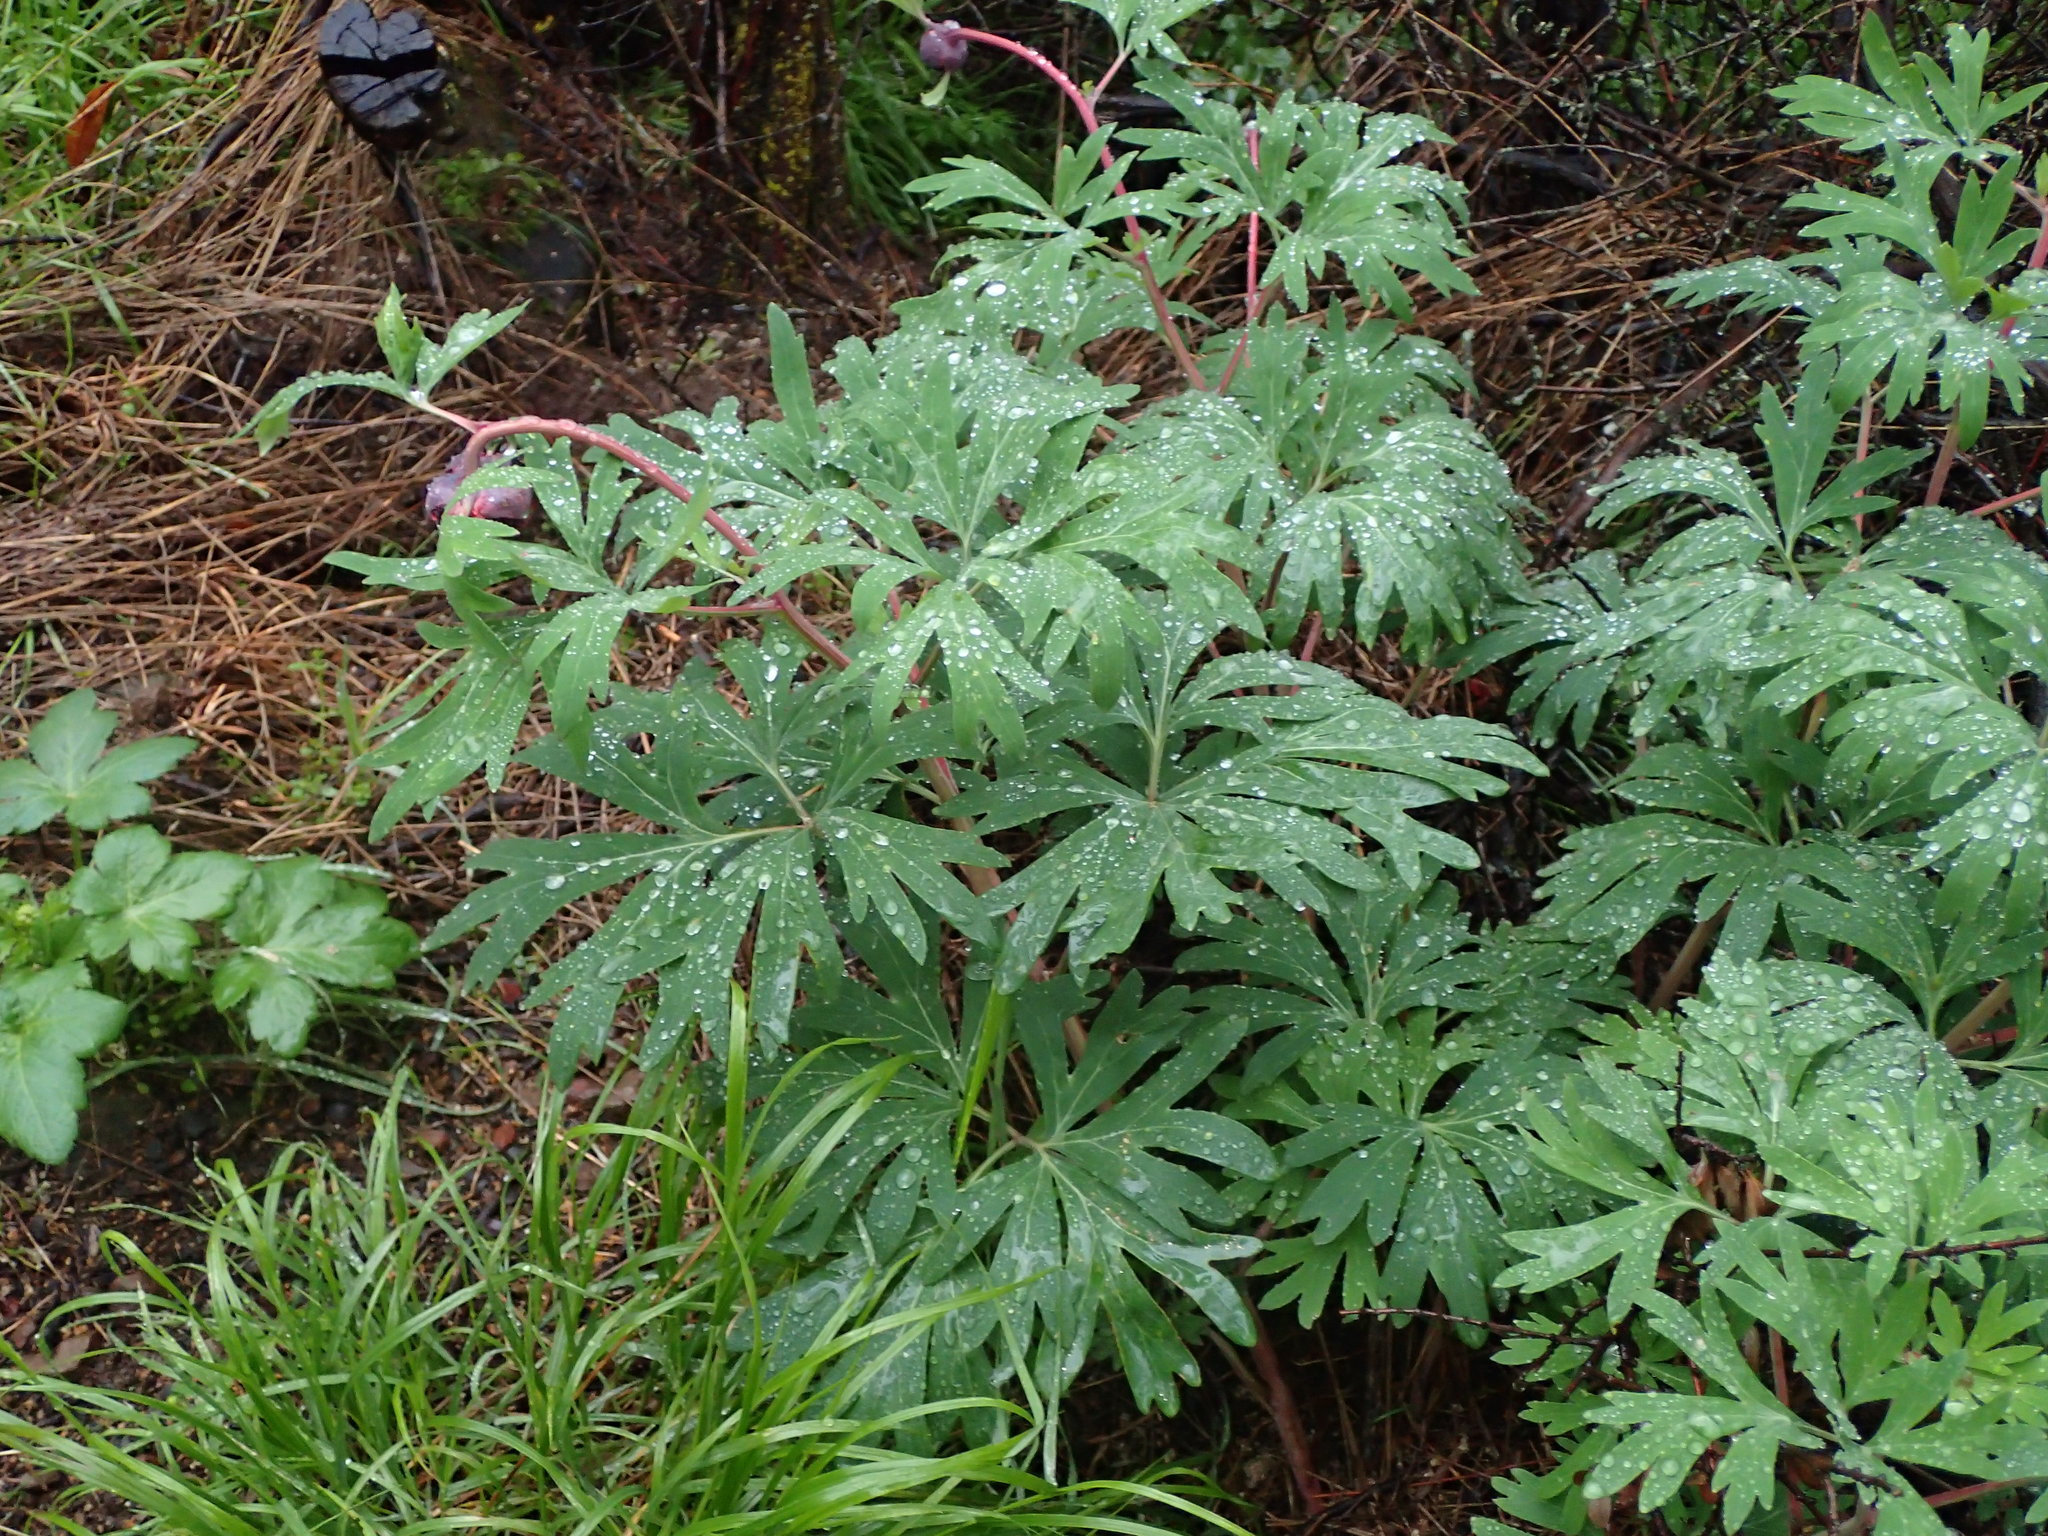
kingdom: Plantae
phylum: Tracheophyta
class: Magnoliopsida
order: Saxifragales
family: Paeoniaceae
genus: Paeonia
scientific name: Paeonia californica
